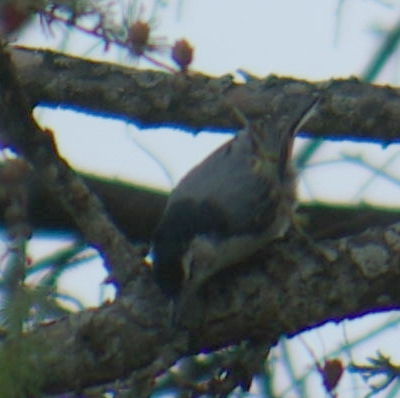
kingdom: Animalia
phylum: Chordata
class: Aves
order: Passeriformes
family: Sittidae
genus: Sitta
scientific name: Sitta carolinensis
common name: White-breasted nuthatch
